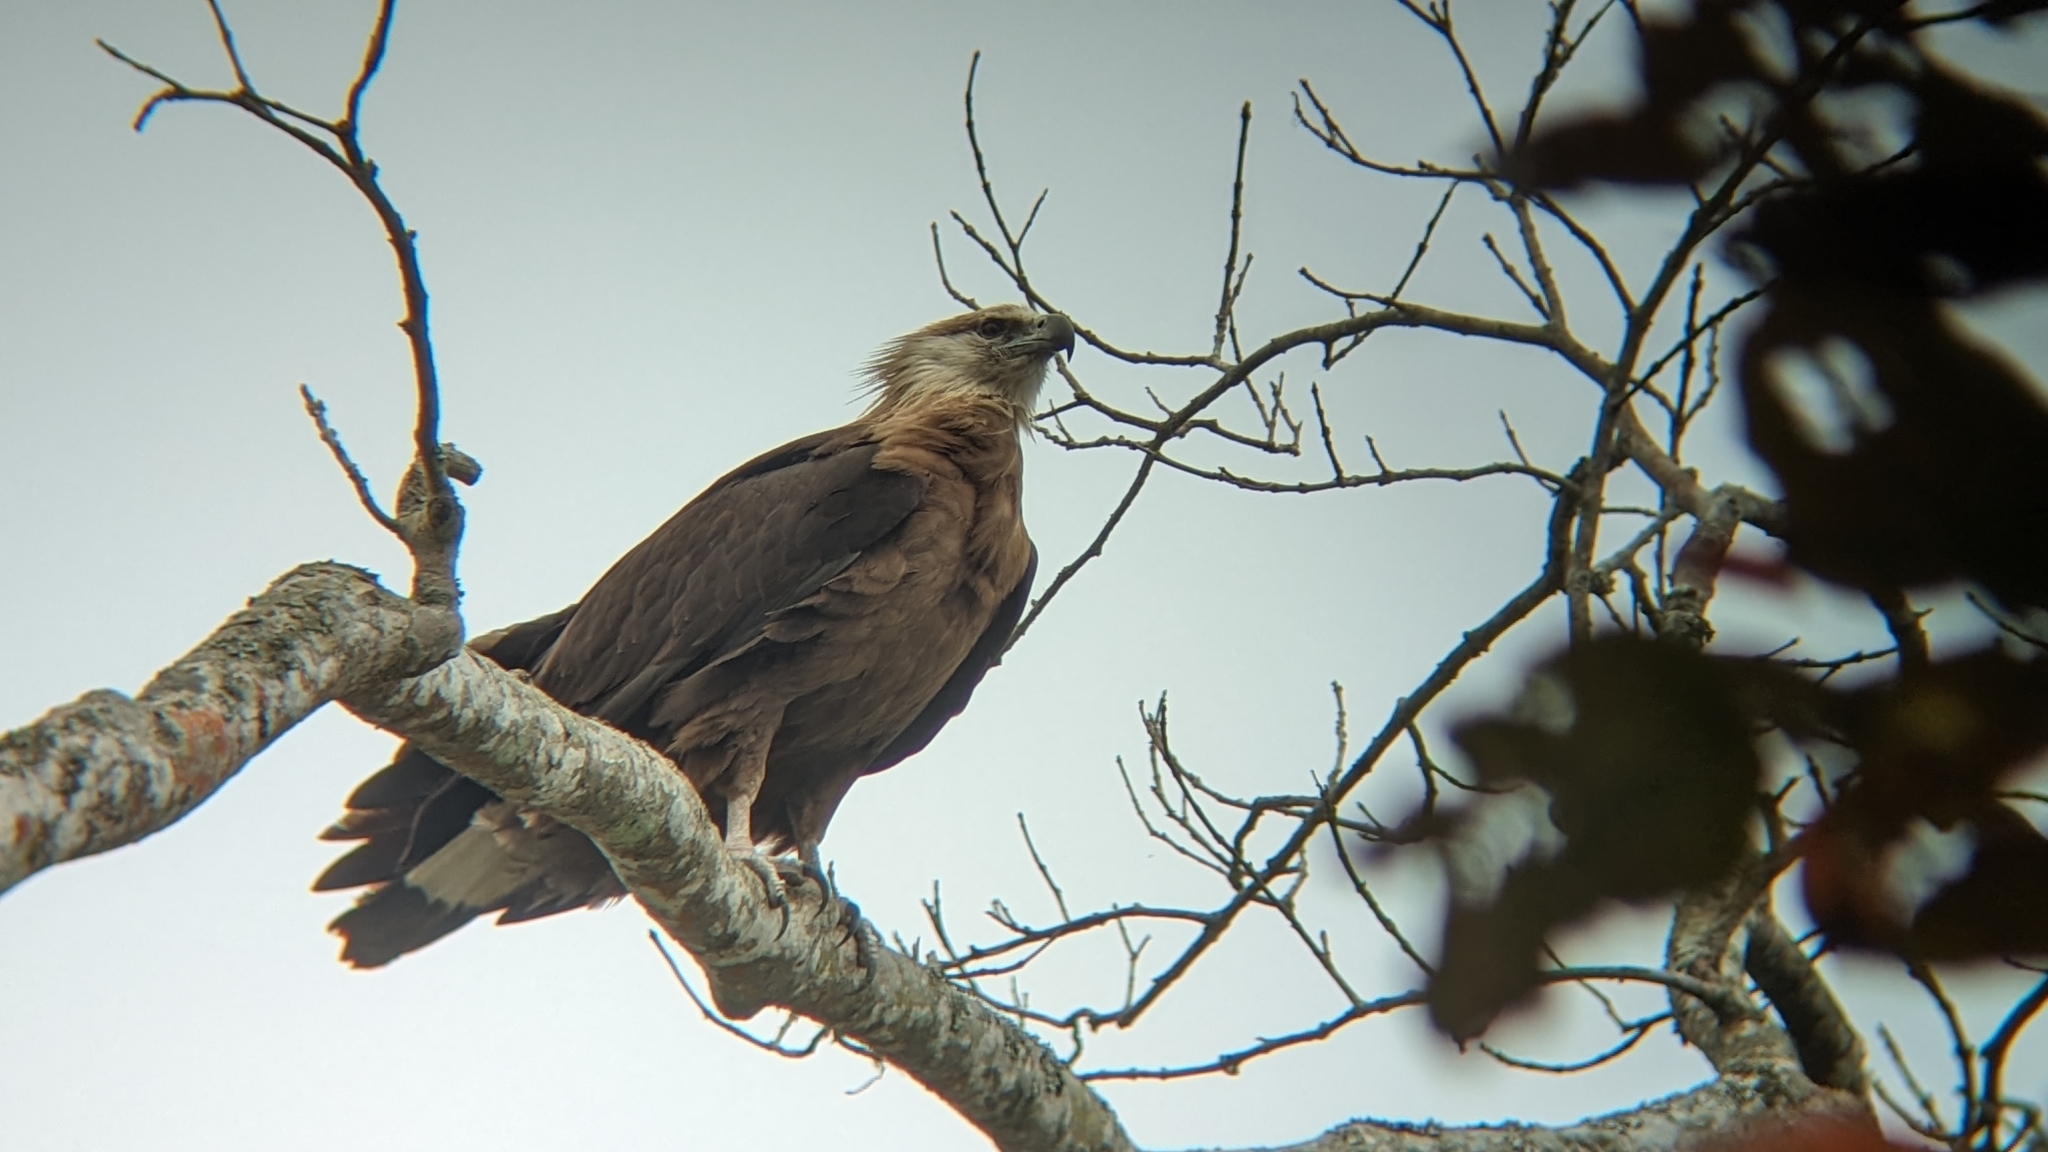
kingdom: Animalia
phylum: Chordata
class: Aves
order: Accipitriformes
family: Accipitridae
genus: Haliaeetus
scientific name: Haliaeetus leucoryphus
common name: Pallas's fish eagle
